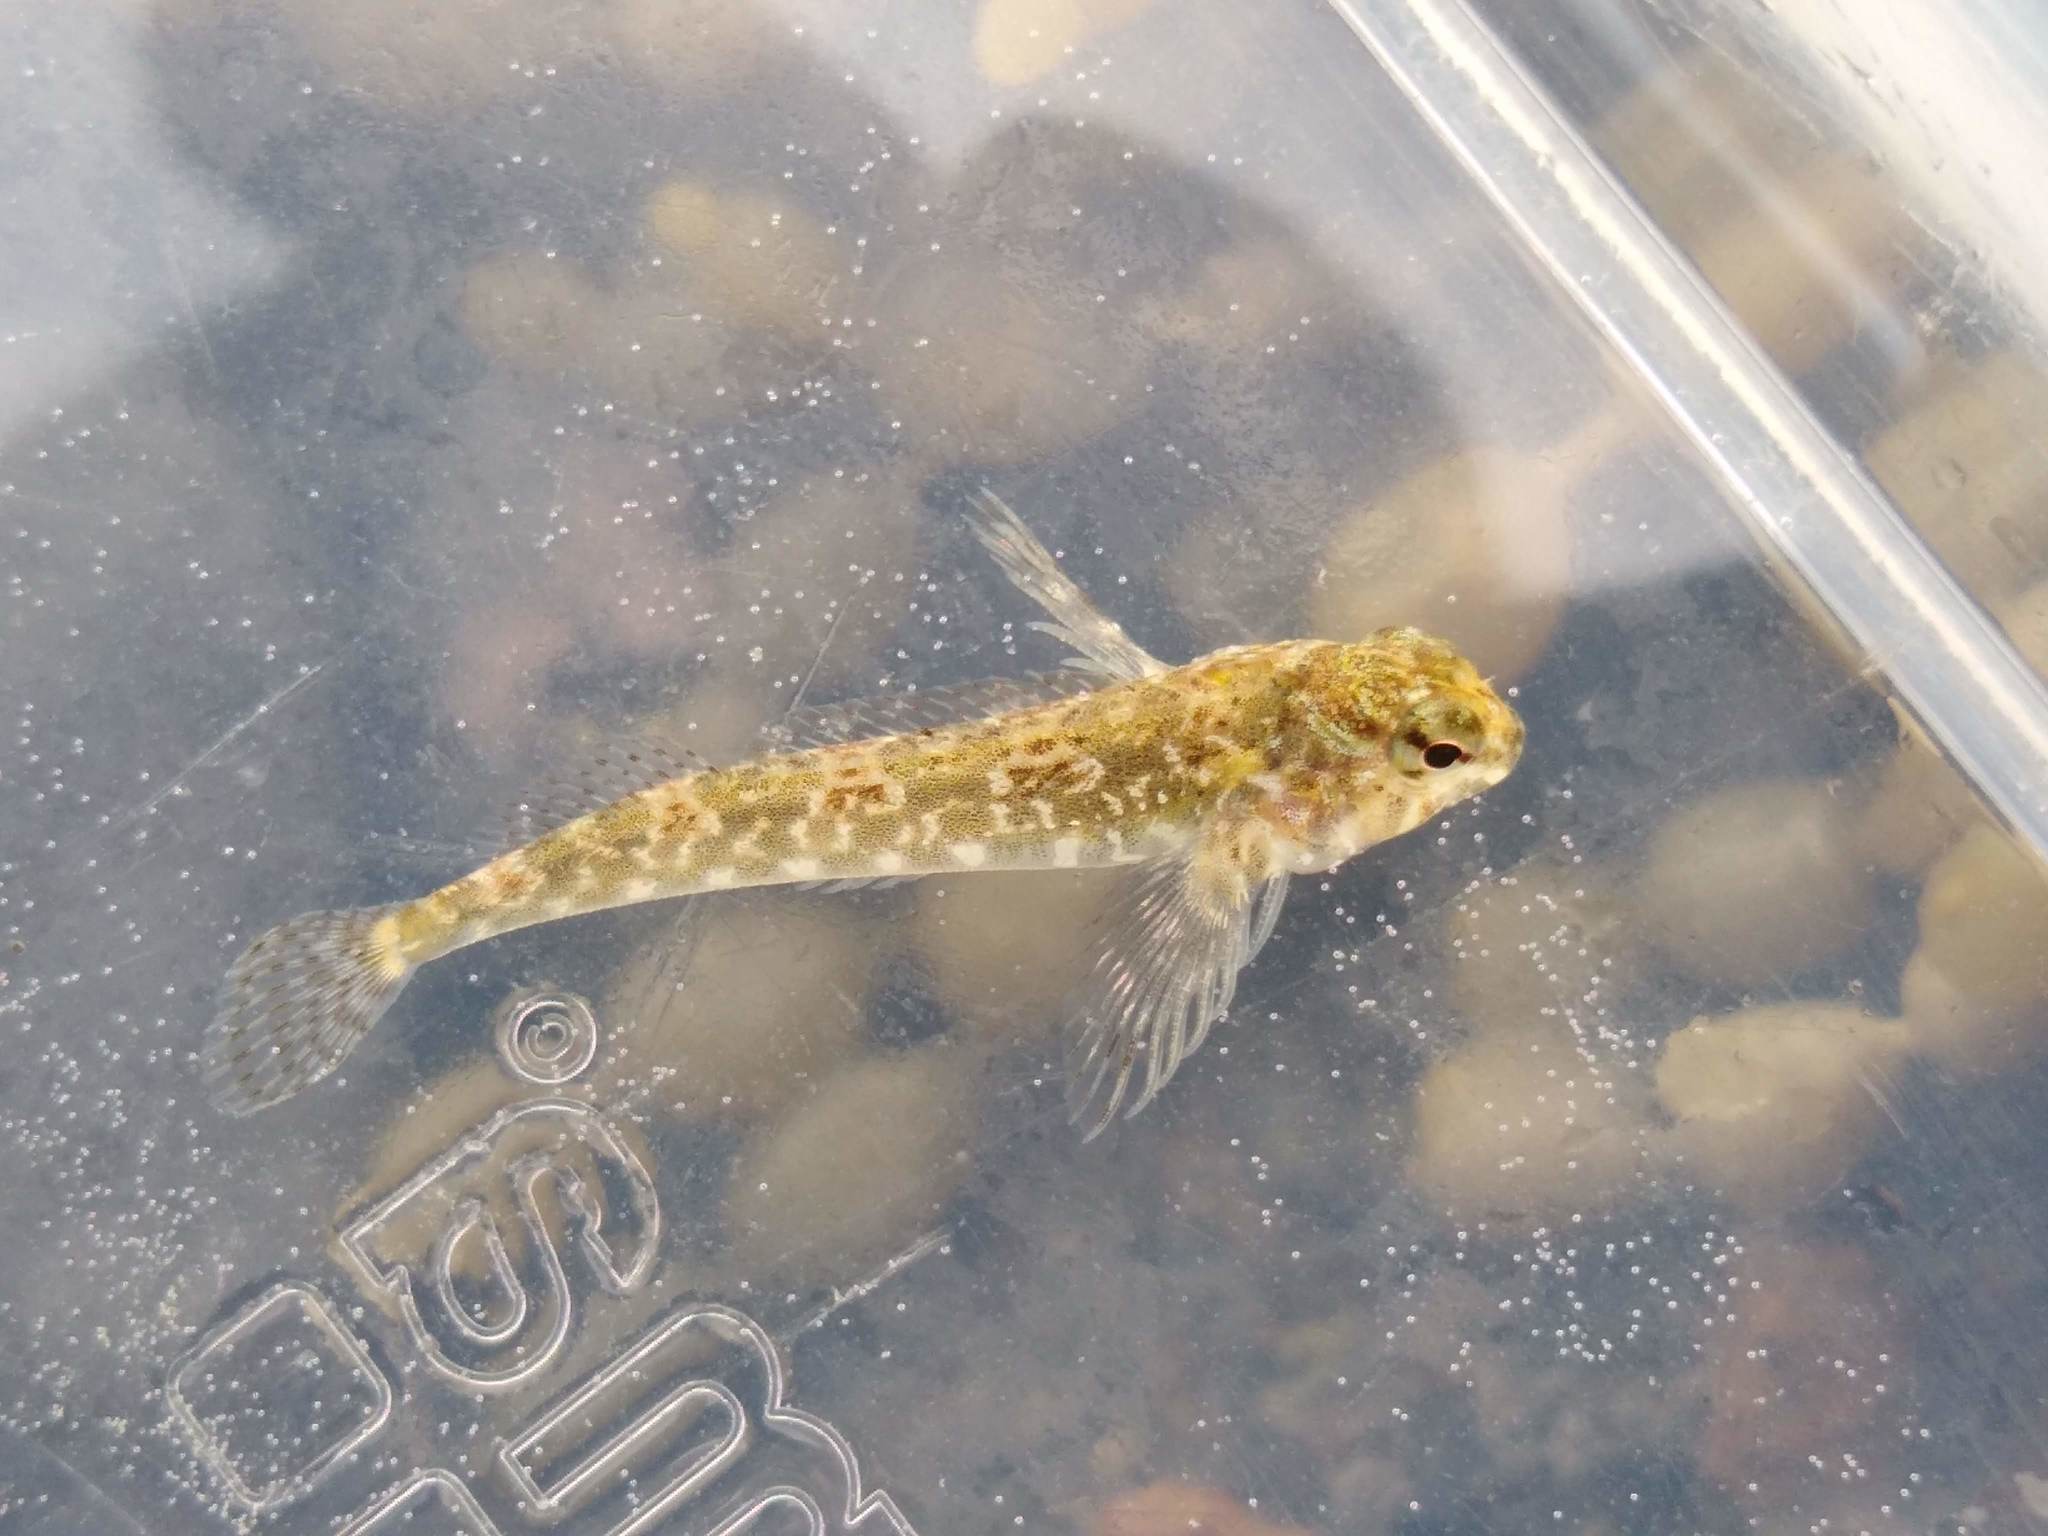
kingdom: Animalia
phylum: Chordata
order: Perciformes
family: Tripterygiidae
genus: Bellapiscis
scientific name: Bellapiscis medius
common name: Twister
